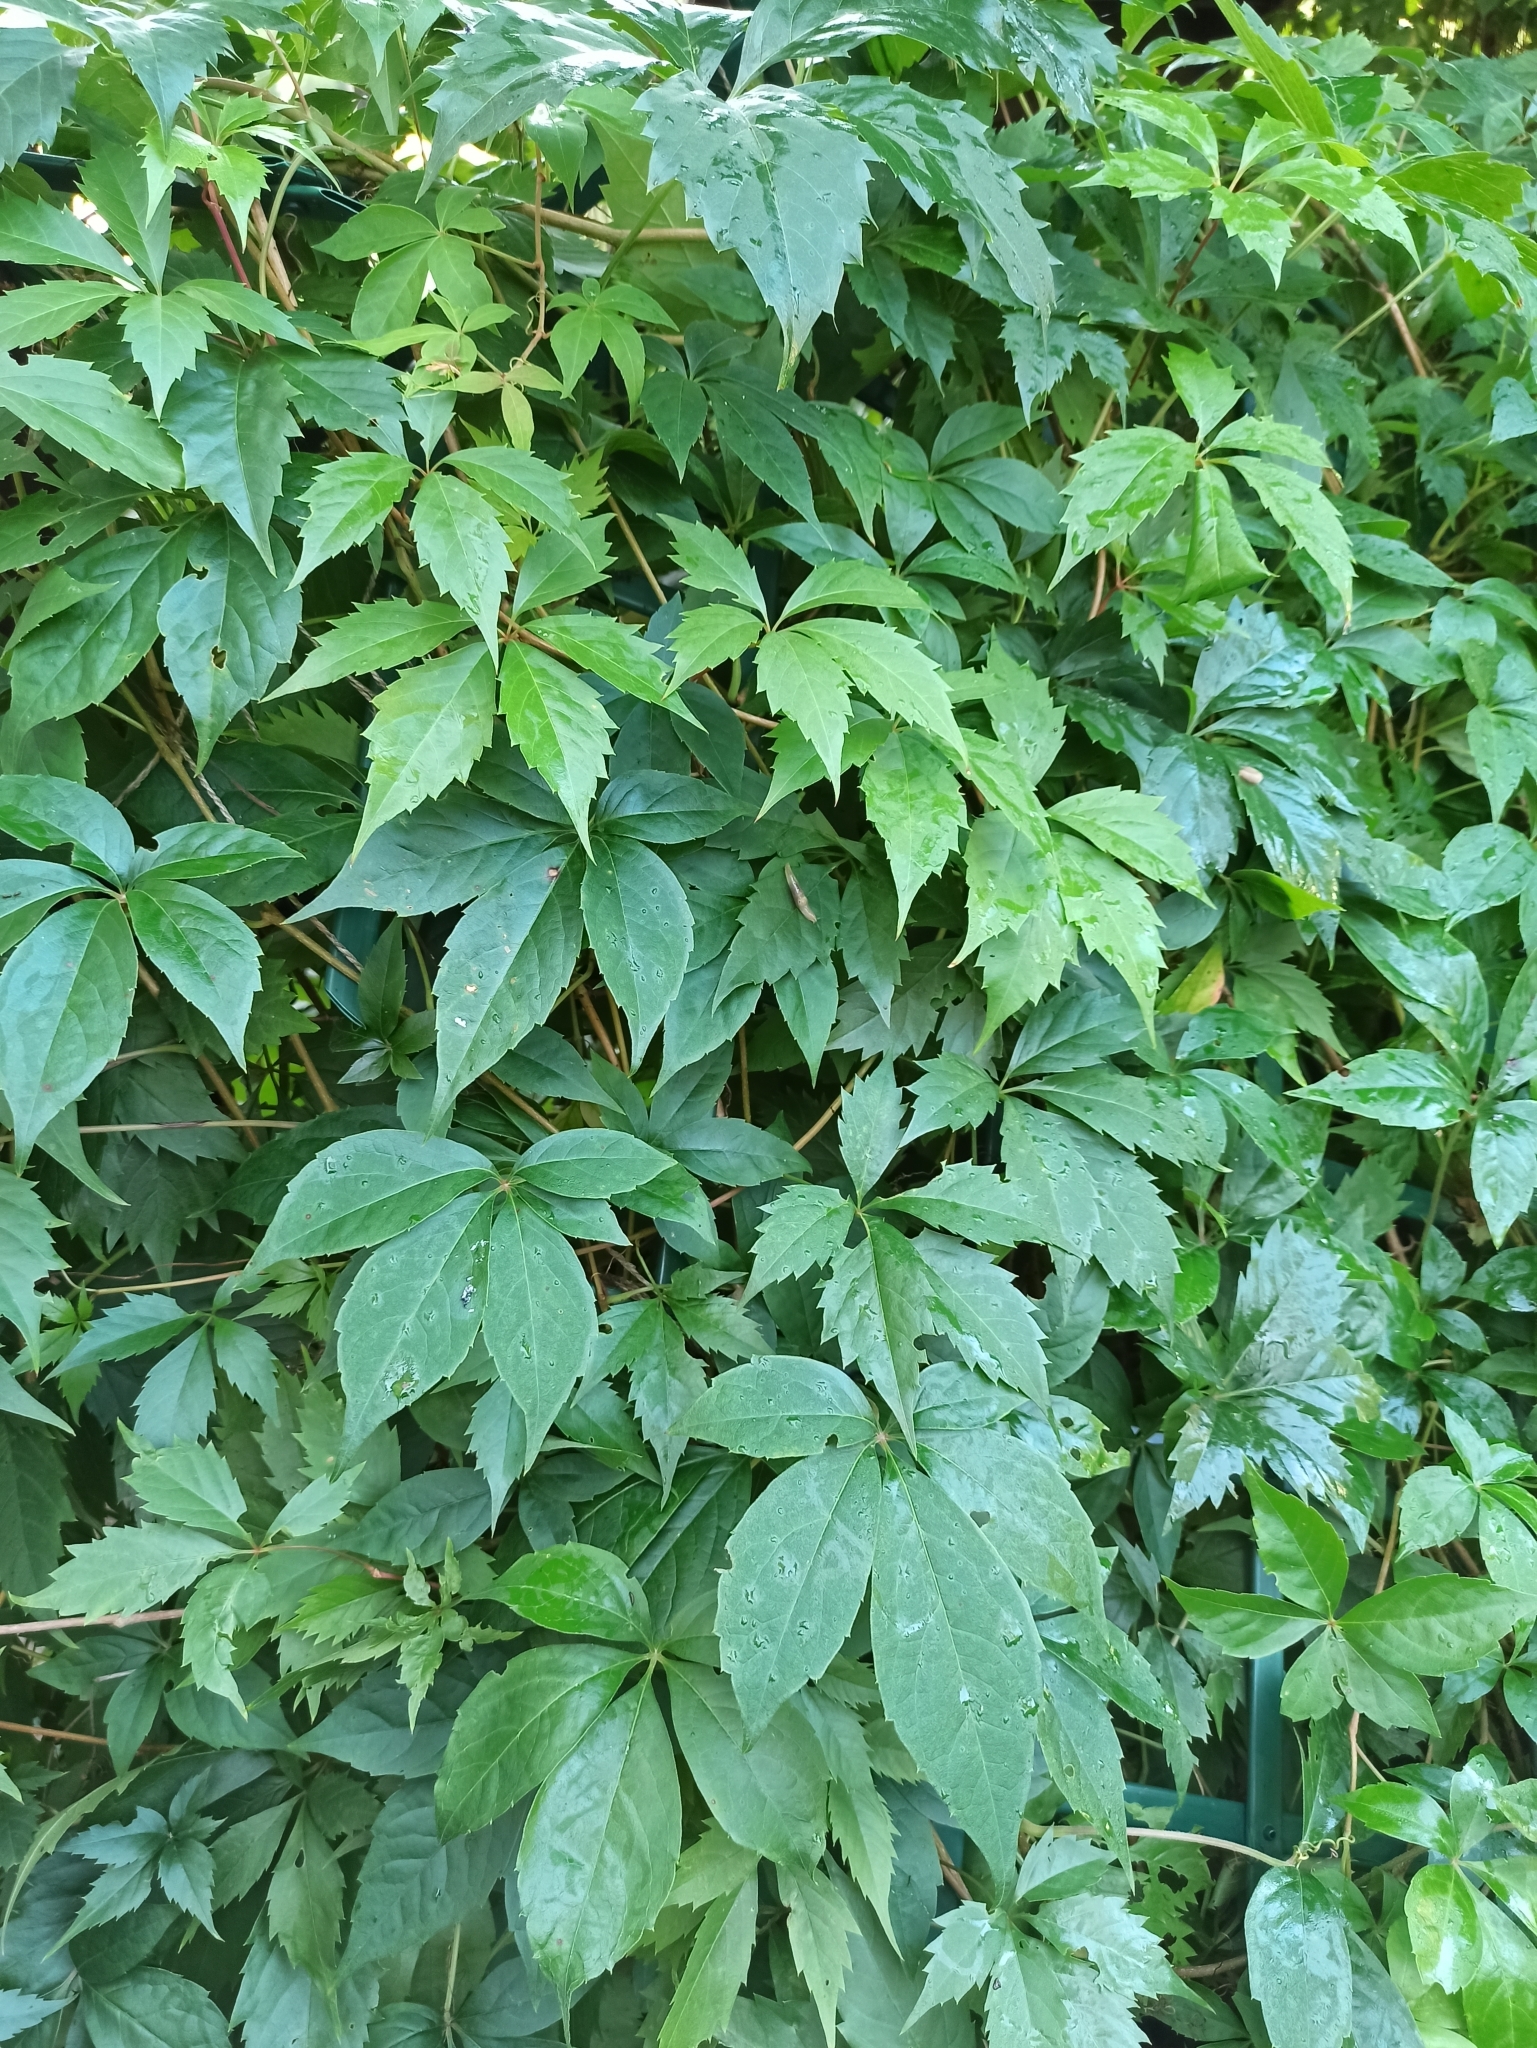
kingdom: Plantae
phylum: Tracheophyta
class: Magnoliopsida
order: Vitales
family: Vitaceae
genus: Parthenocissus
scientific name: Parthenocissus inserta
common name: False virginia-creeper
